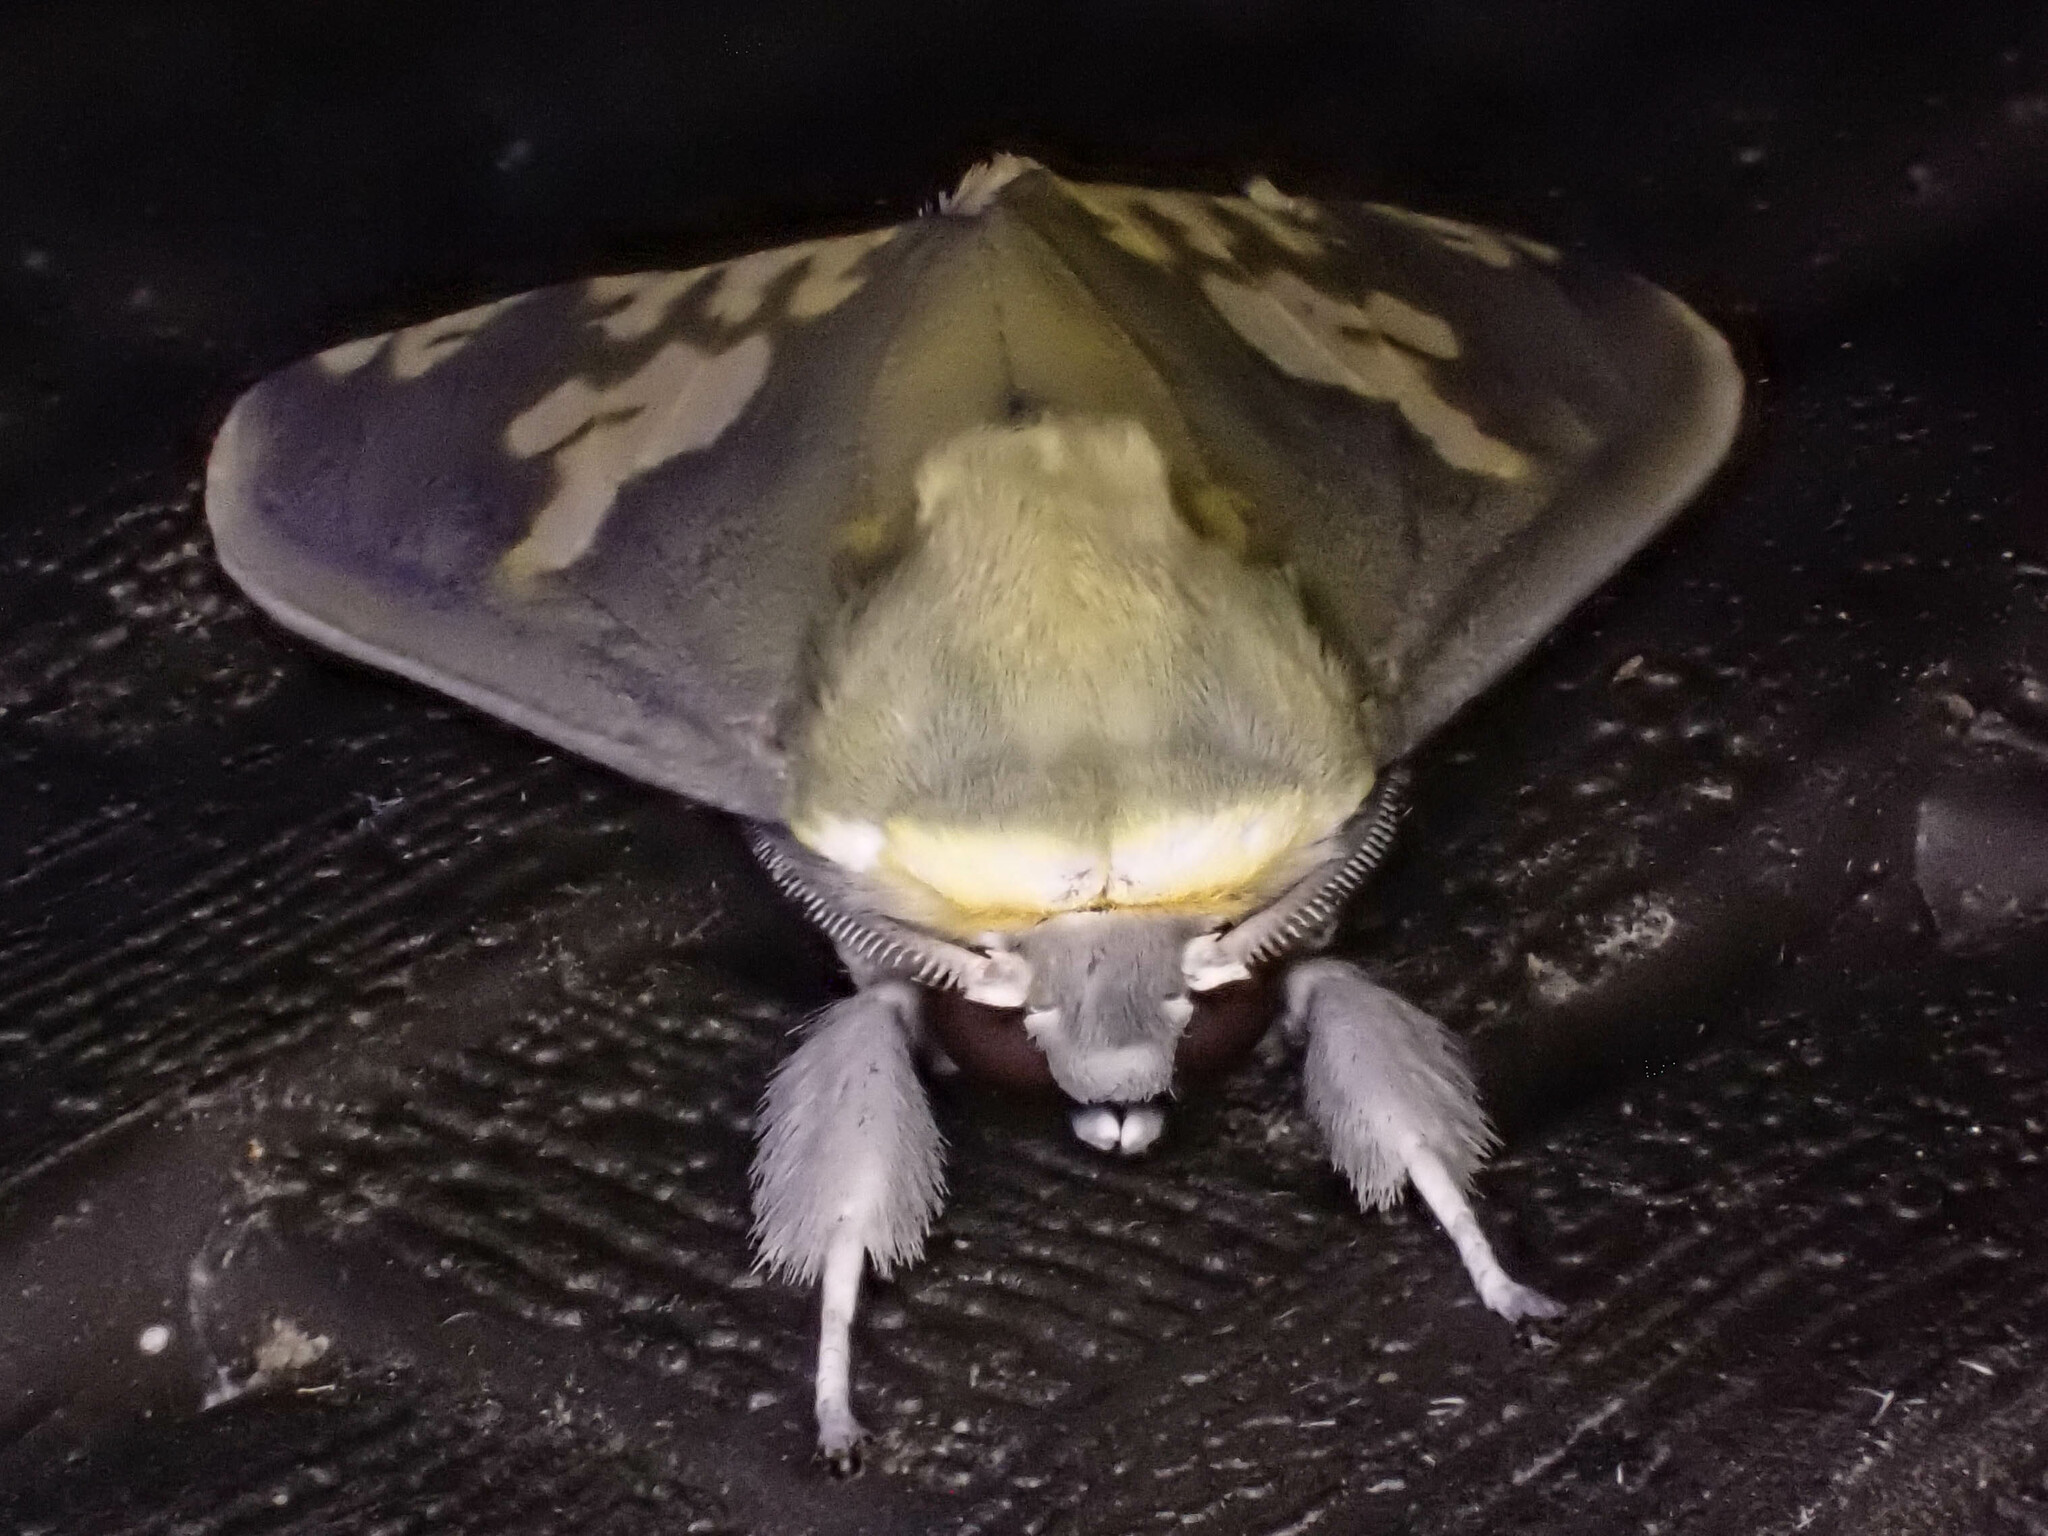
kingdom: Animalia
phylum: Arthropoda
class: Insecta
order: Lepidoptera
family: Erebidae
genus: Castrica
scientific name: Castrica phalaenoides
